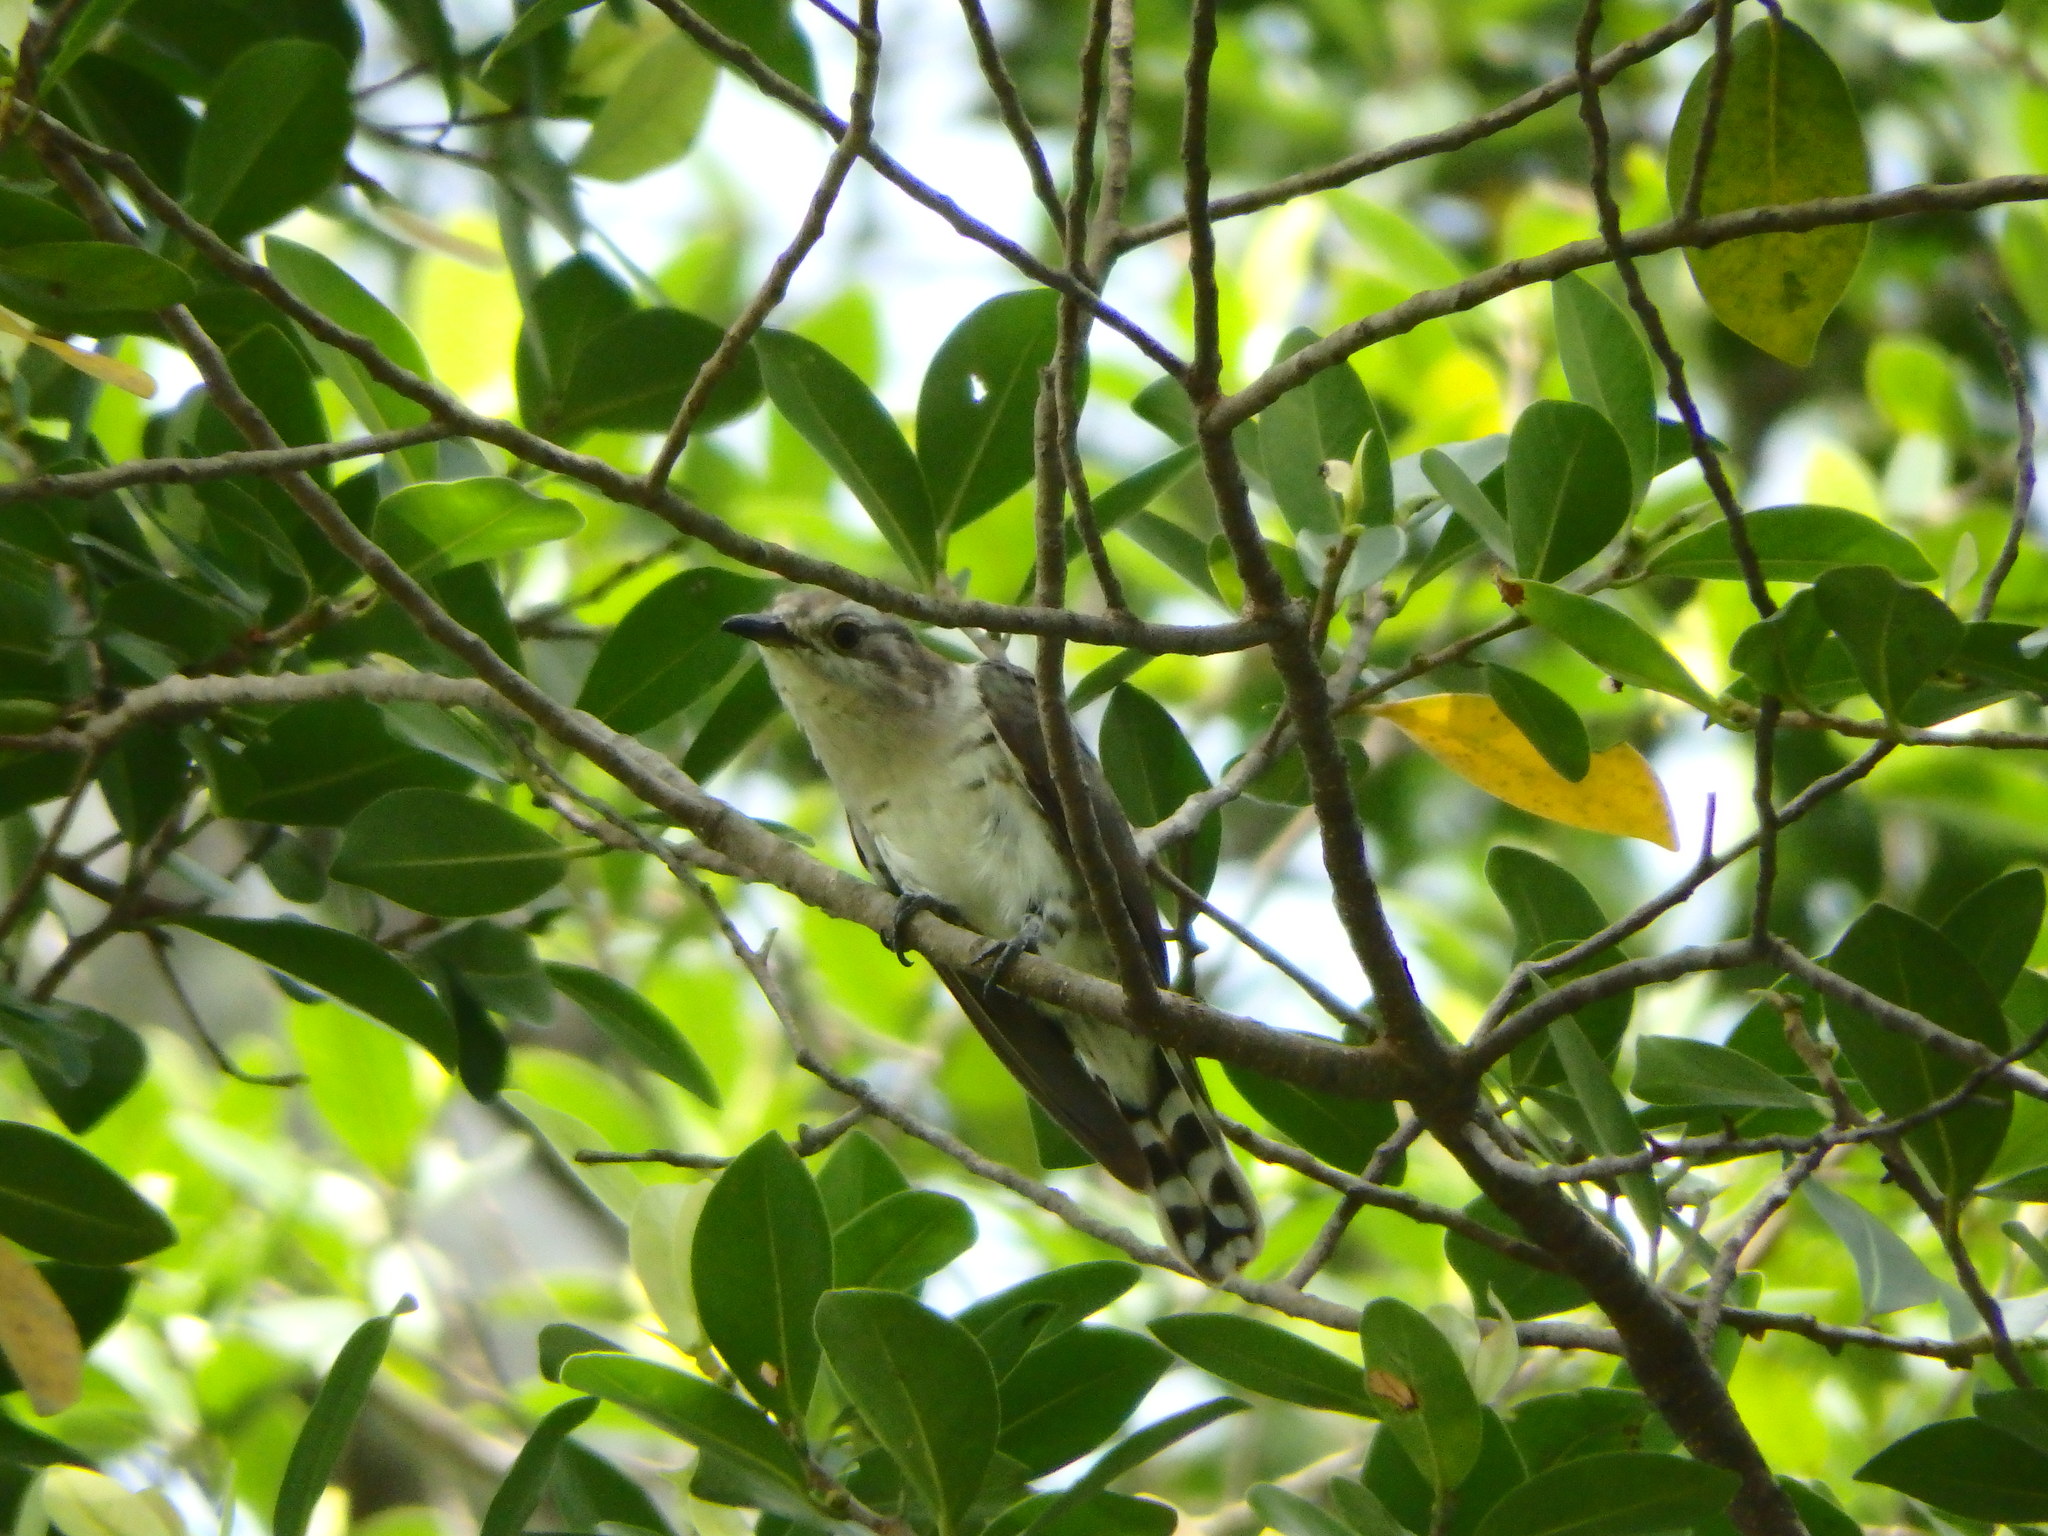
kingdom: Animalia
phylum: Chordata
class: Aves
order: Cuculiformes
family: Cuculidae
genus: Chrysococcyx
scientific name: Chrysococcyx minutillus
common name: Little bronze cuckoo
